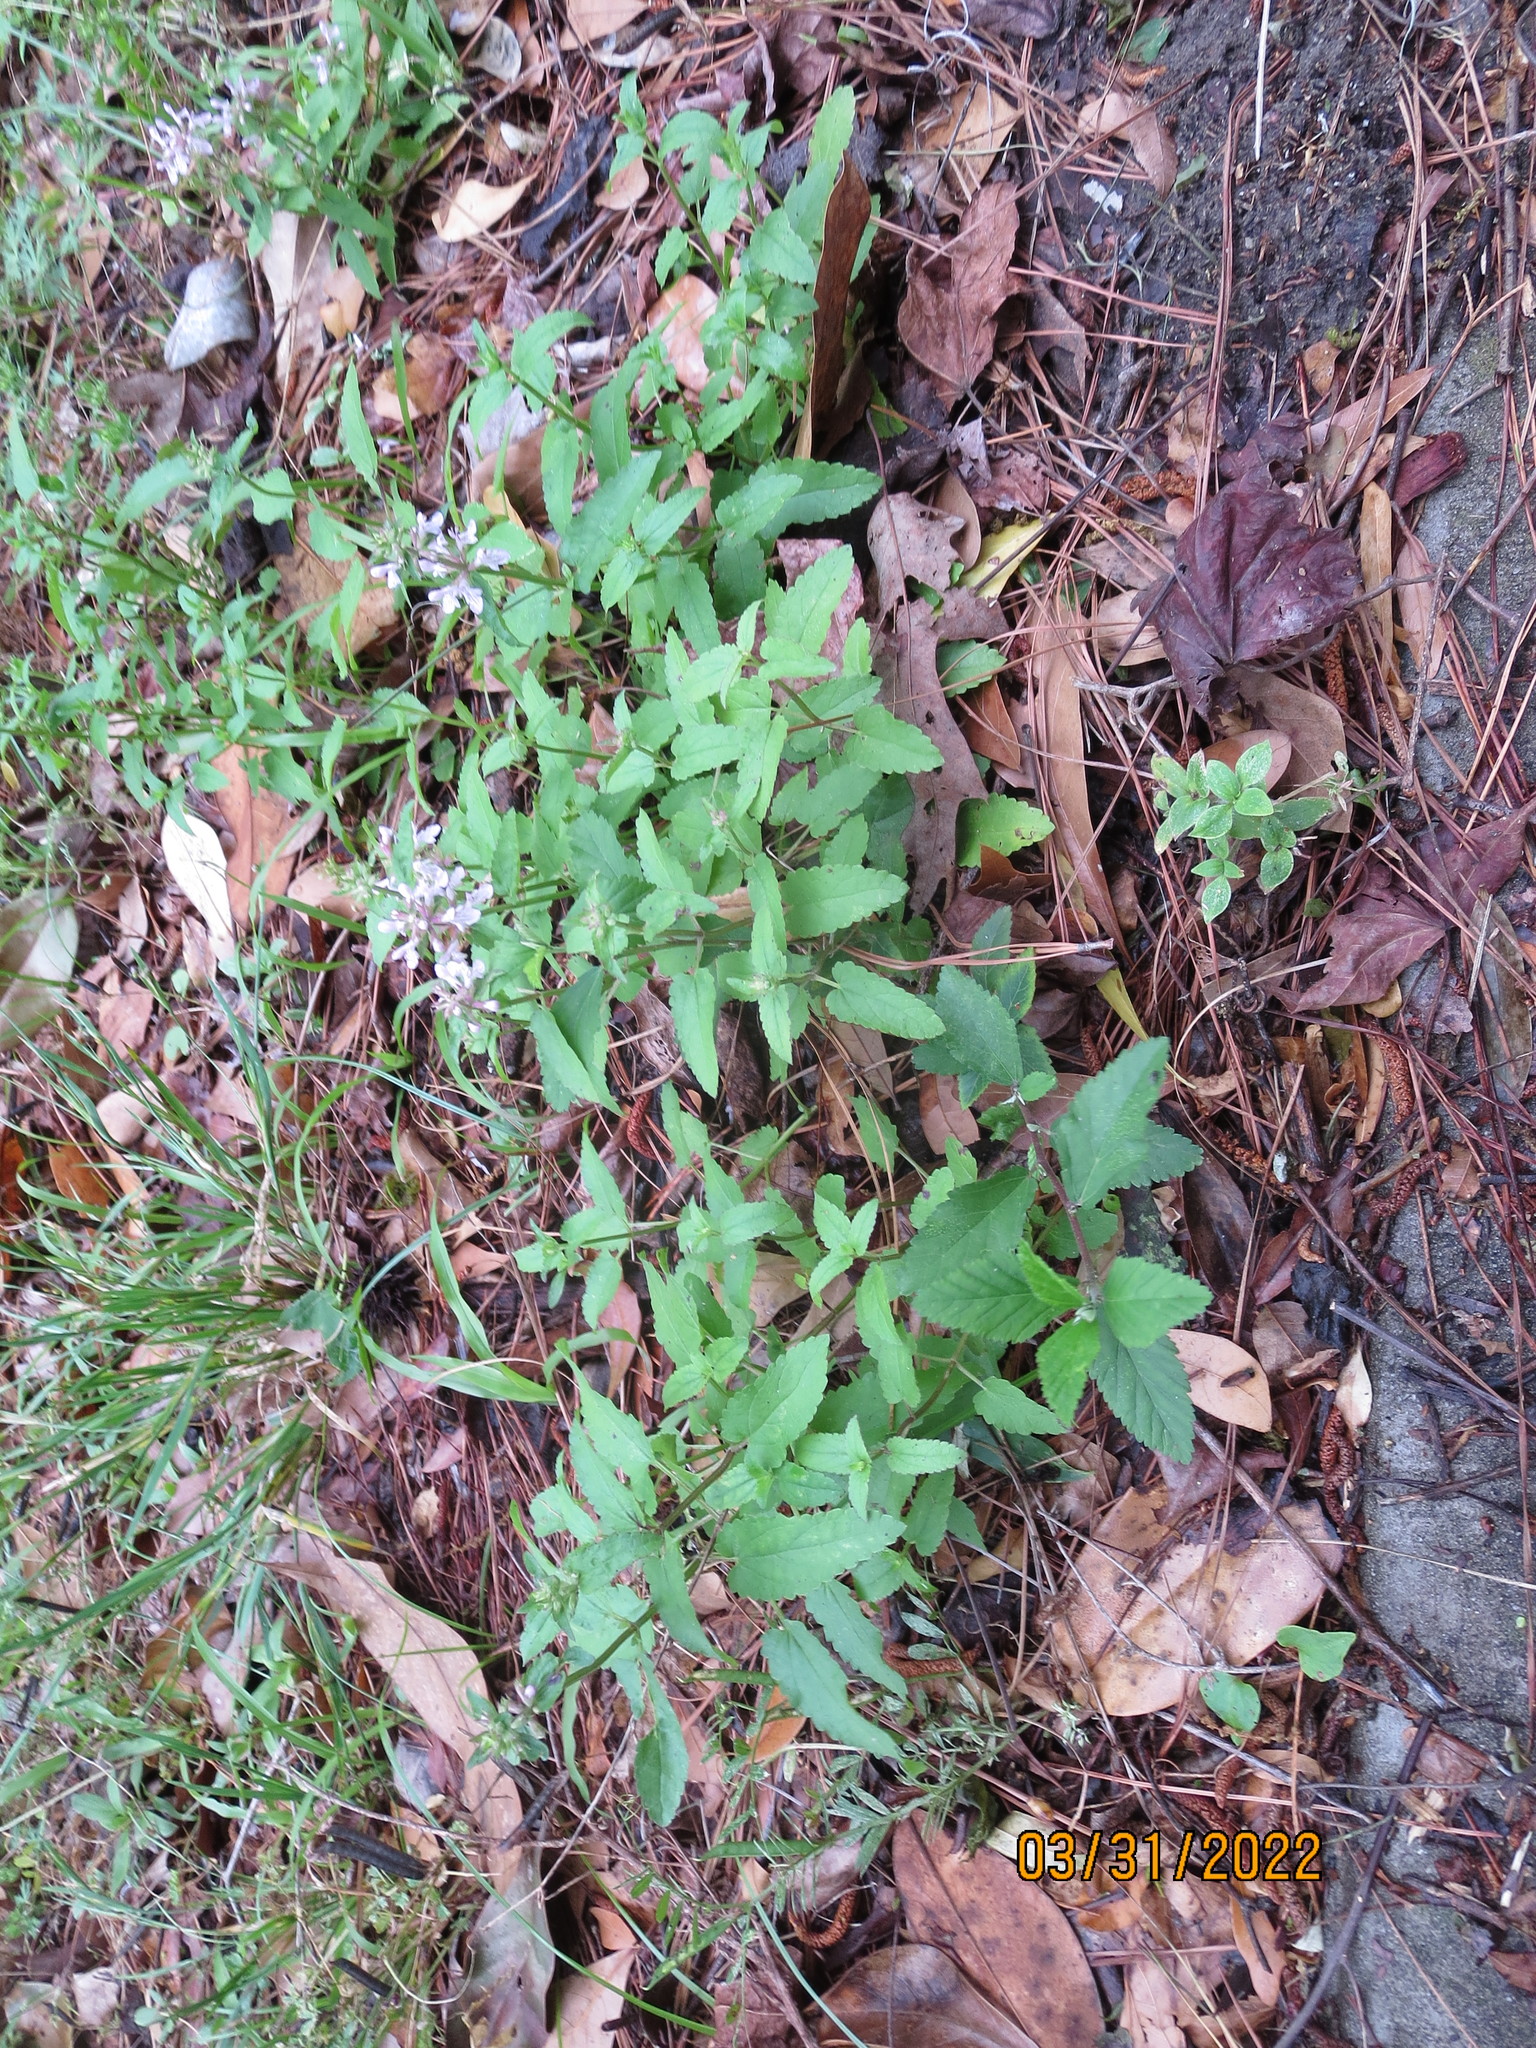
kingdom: Plantae
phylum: Tracheophyta
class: Magnoliopsida
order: Lamiales
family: Lamiaceae
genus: Stachys
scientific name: Stachys floridana
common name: Florida betony
